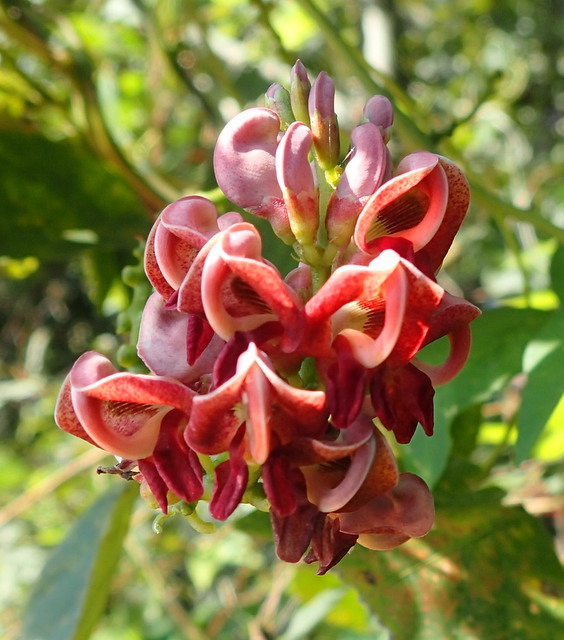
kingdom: Plantae
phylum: Tracheophyta
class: Magnoliopsida
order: Fabales
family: Fabaceae
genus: Apios
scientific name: Apios americana
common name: American potato-bean
